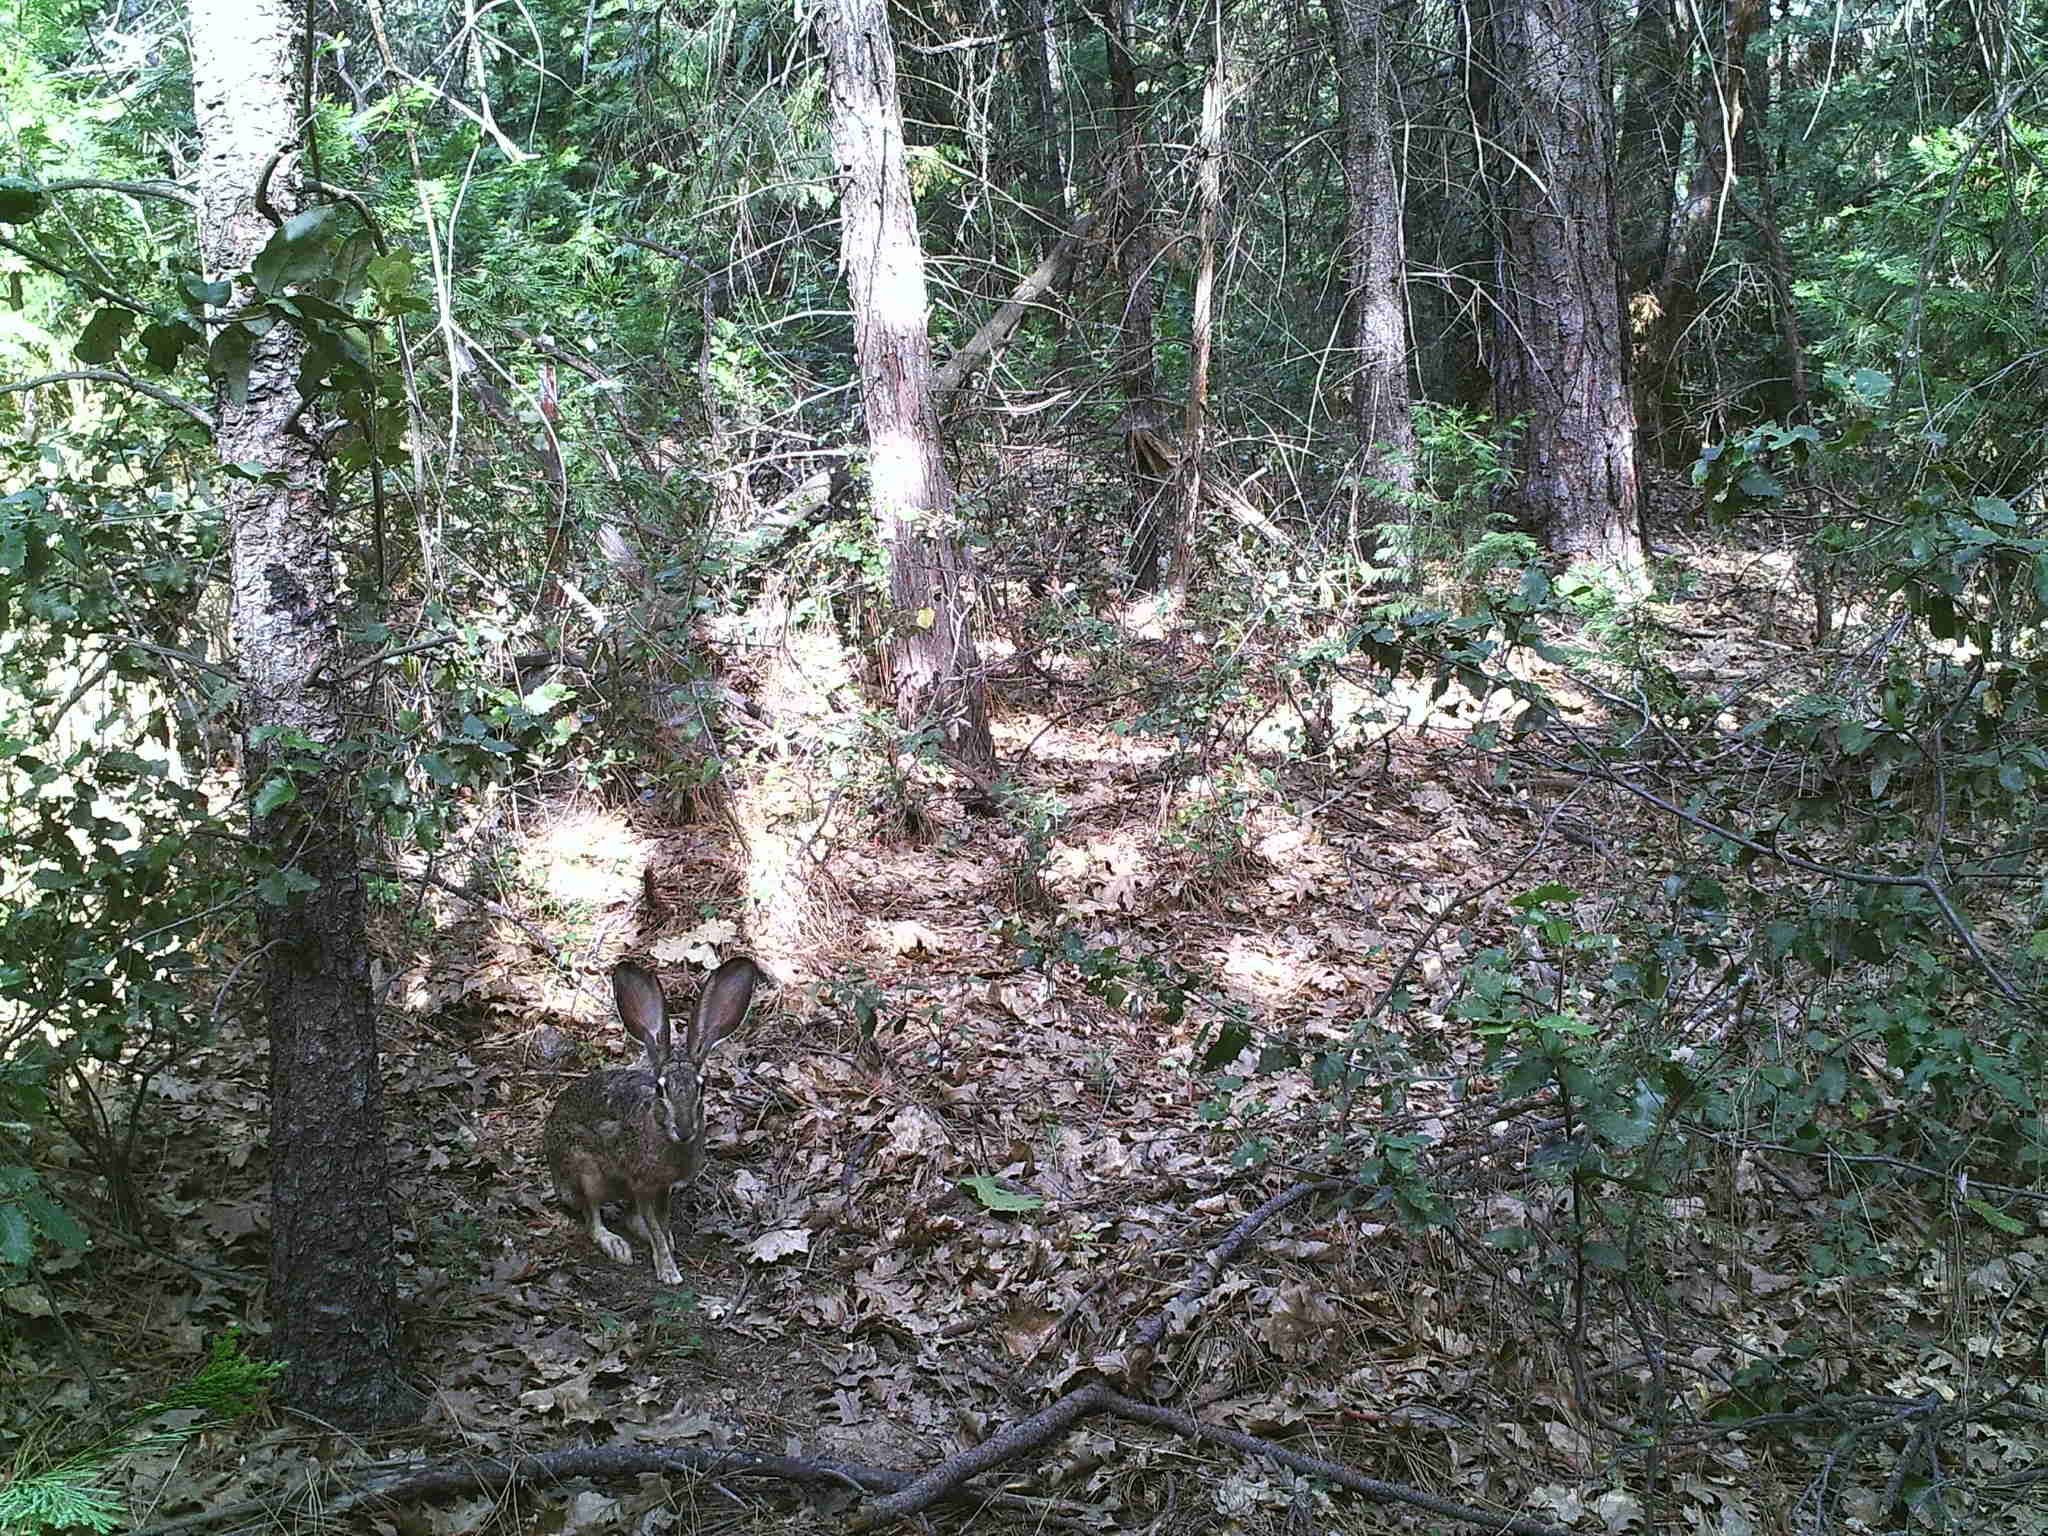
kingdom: Animalia
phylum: Chordata
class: Mammalia
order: Lagomorpha
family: Leporidae
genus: Lepus
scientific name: Lepus californicus
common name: Black-tailed jackrabbit
